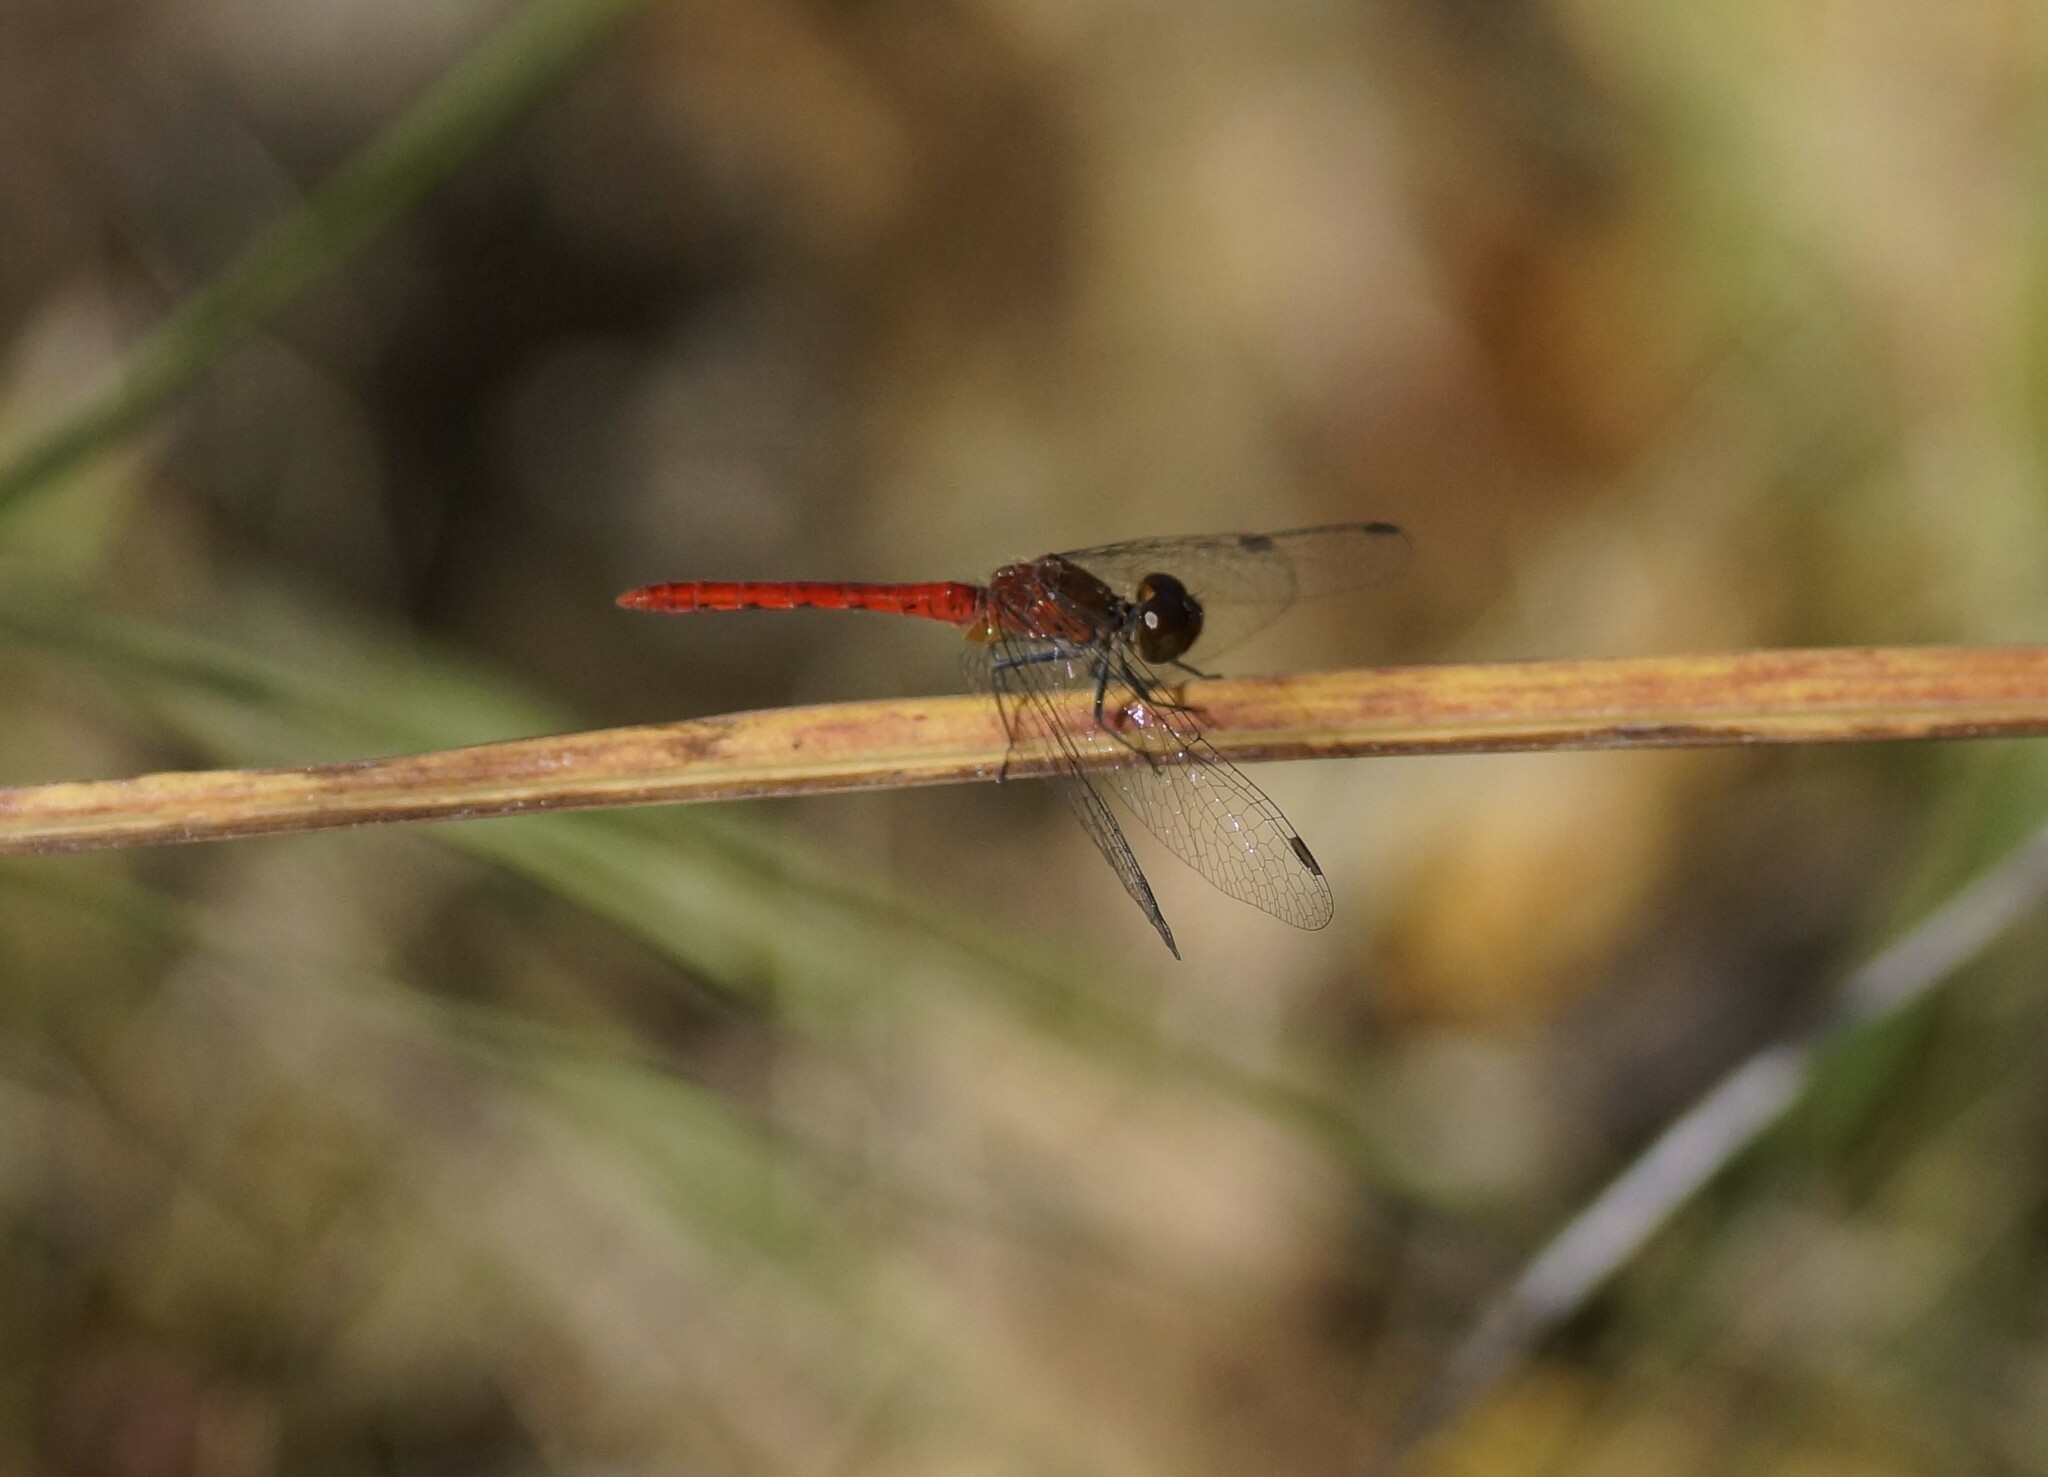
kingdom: Animalia
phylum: Arthropoda
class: Insecta
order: Odonata
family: Libellulidae
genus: Nannodiplax
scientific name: Nannodiplax rubra
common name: Pygmy percher
